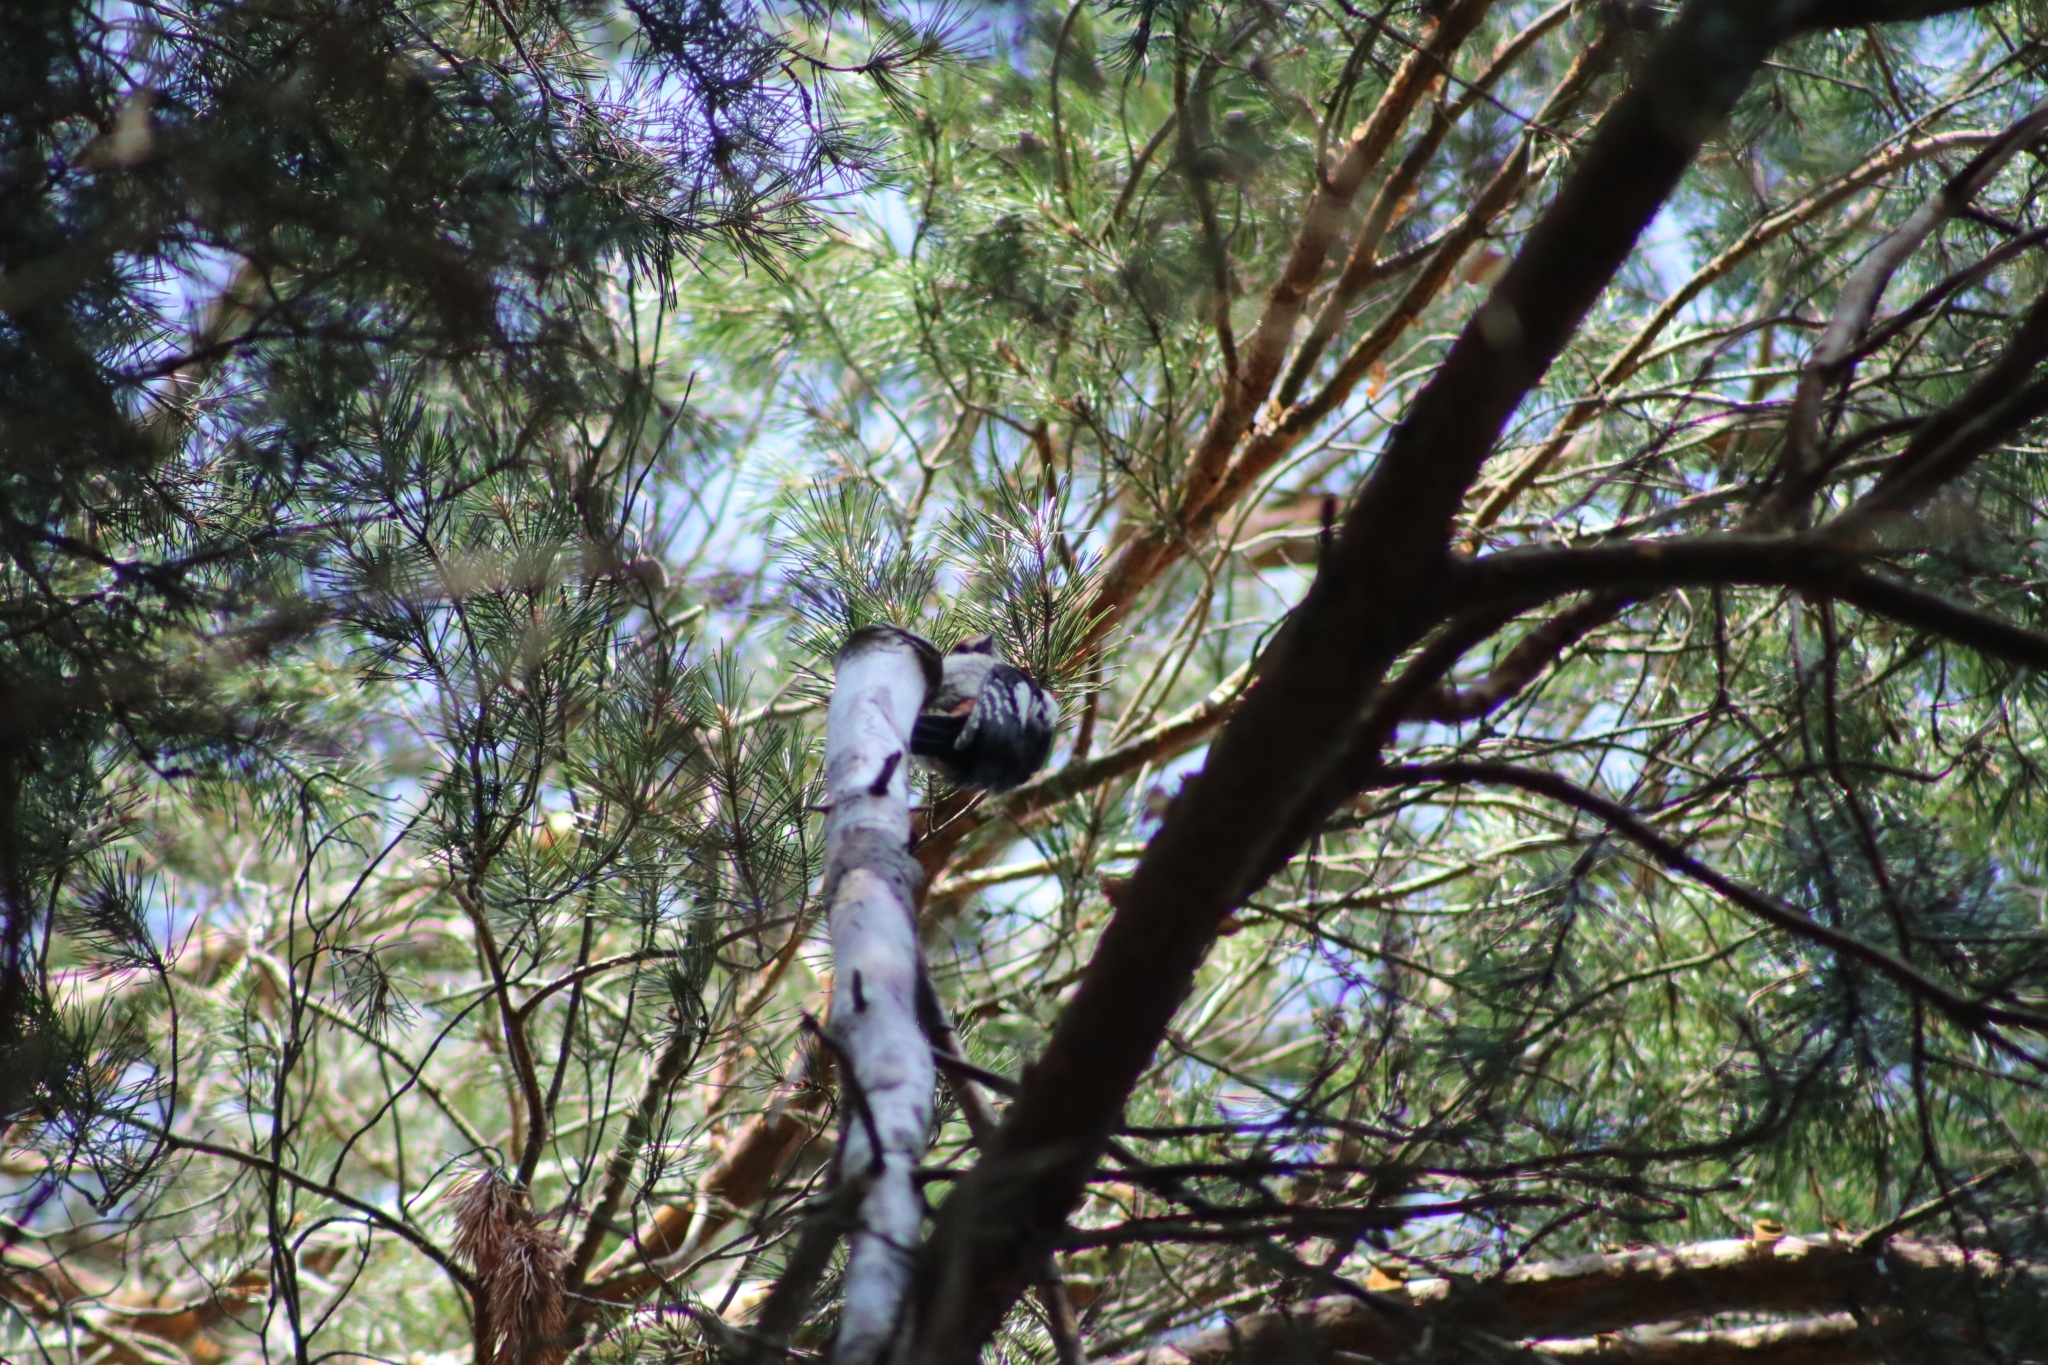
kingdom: Animalia
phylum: Chordata
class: Aves
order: Piciformes
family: Picidae
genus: Dendrocopos
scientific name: Dendrocopos major
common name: Great spotted woodpecker
